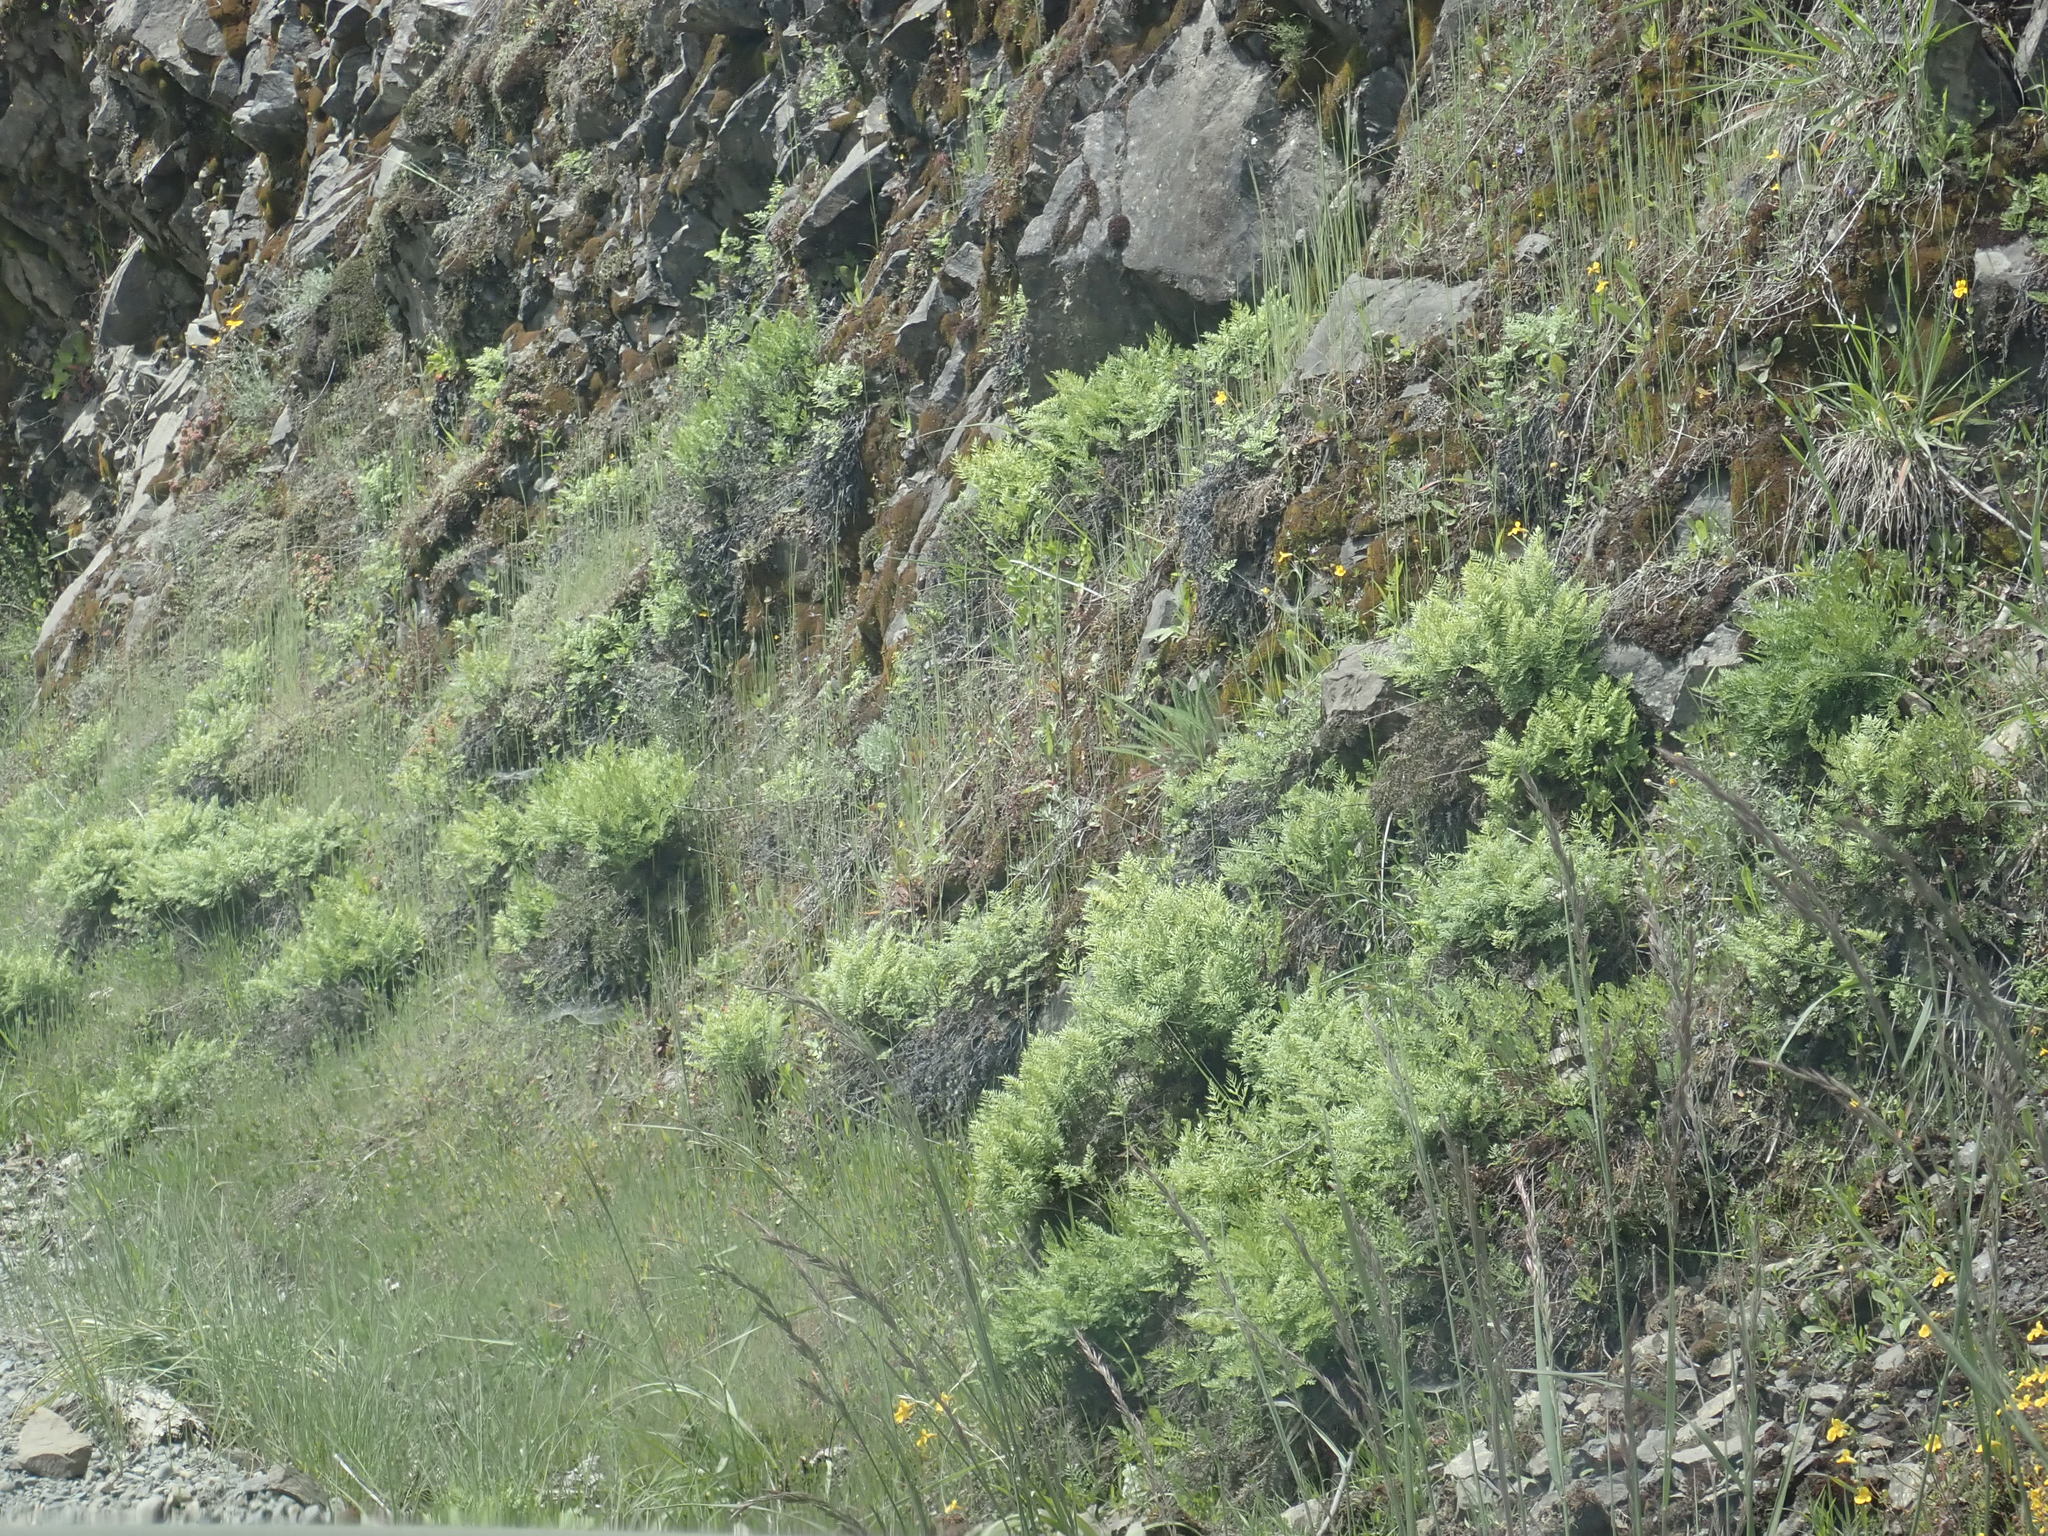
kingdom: Plantae
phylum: Tracheophyta
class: Polypodiopsida
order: Polypodiales
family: Pteridaceae
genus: Aspidotis
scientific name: Aspidotis densa
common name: Indian's dream
